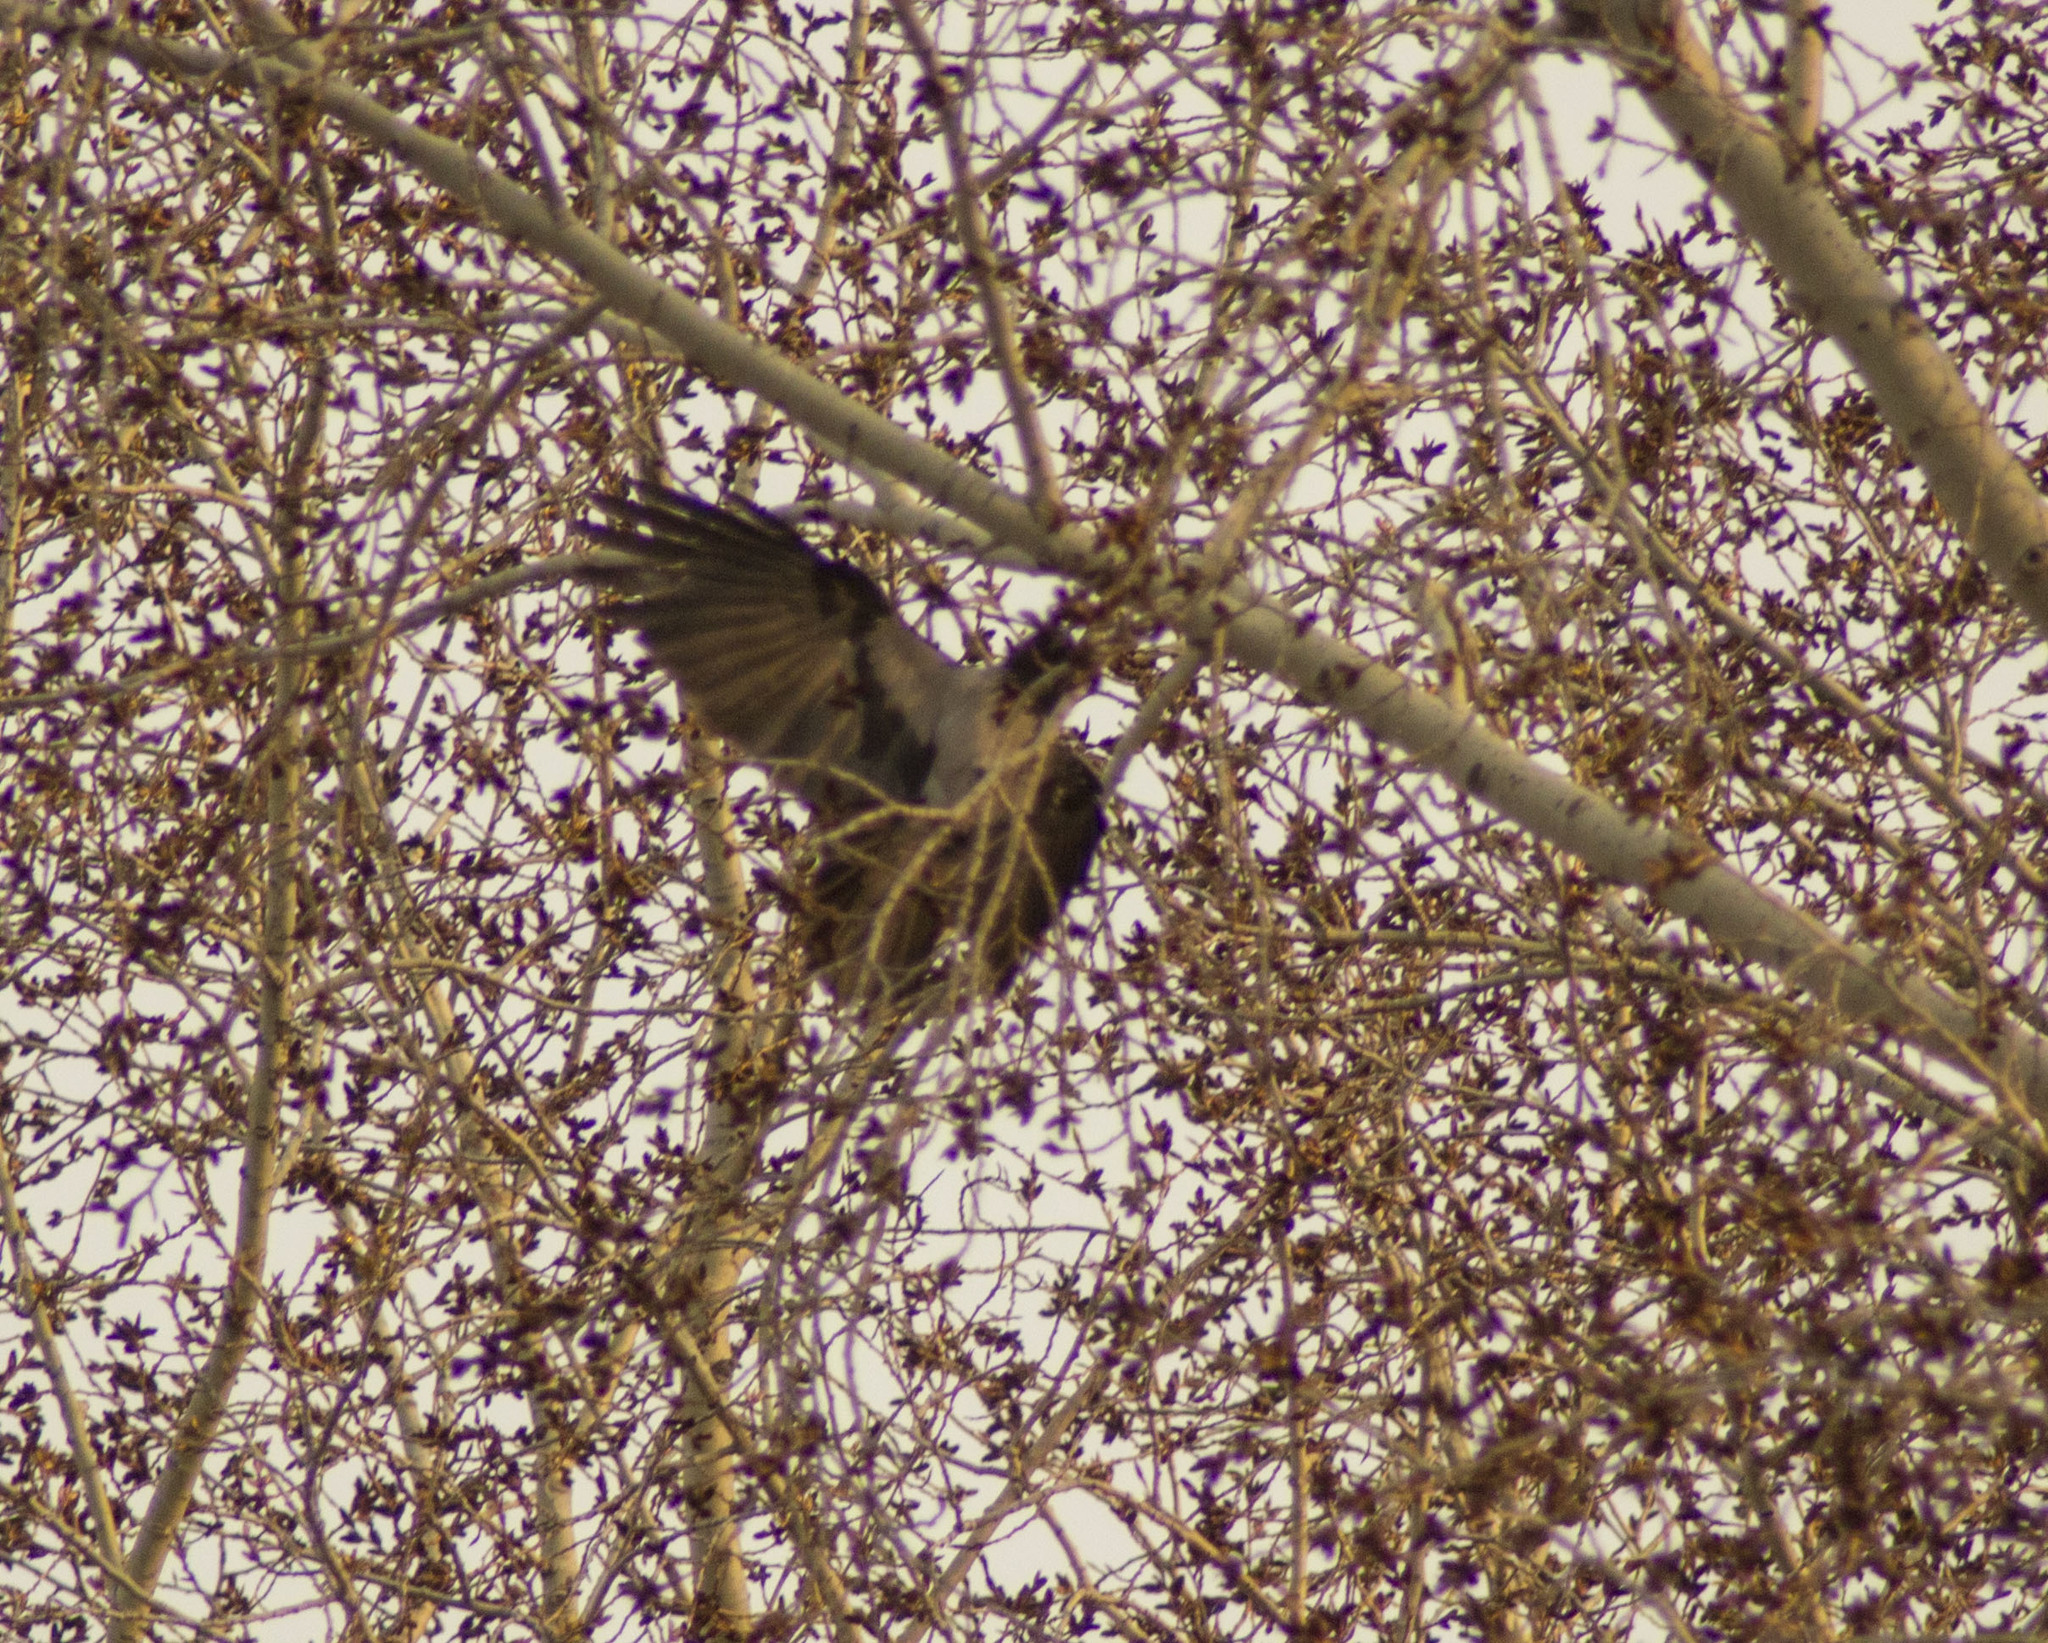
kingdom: Animalia
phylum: Chordata
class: Aves
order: Passeriformes
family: Corvidae
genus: Corvus
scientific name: Corvus cornix
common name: Hooded crow
